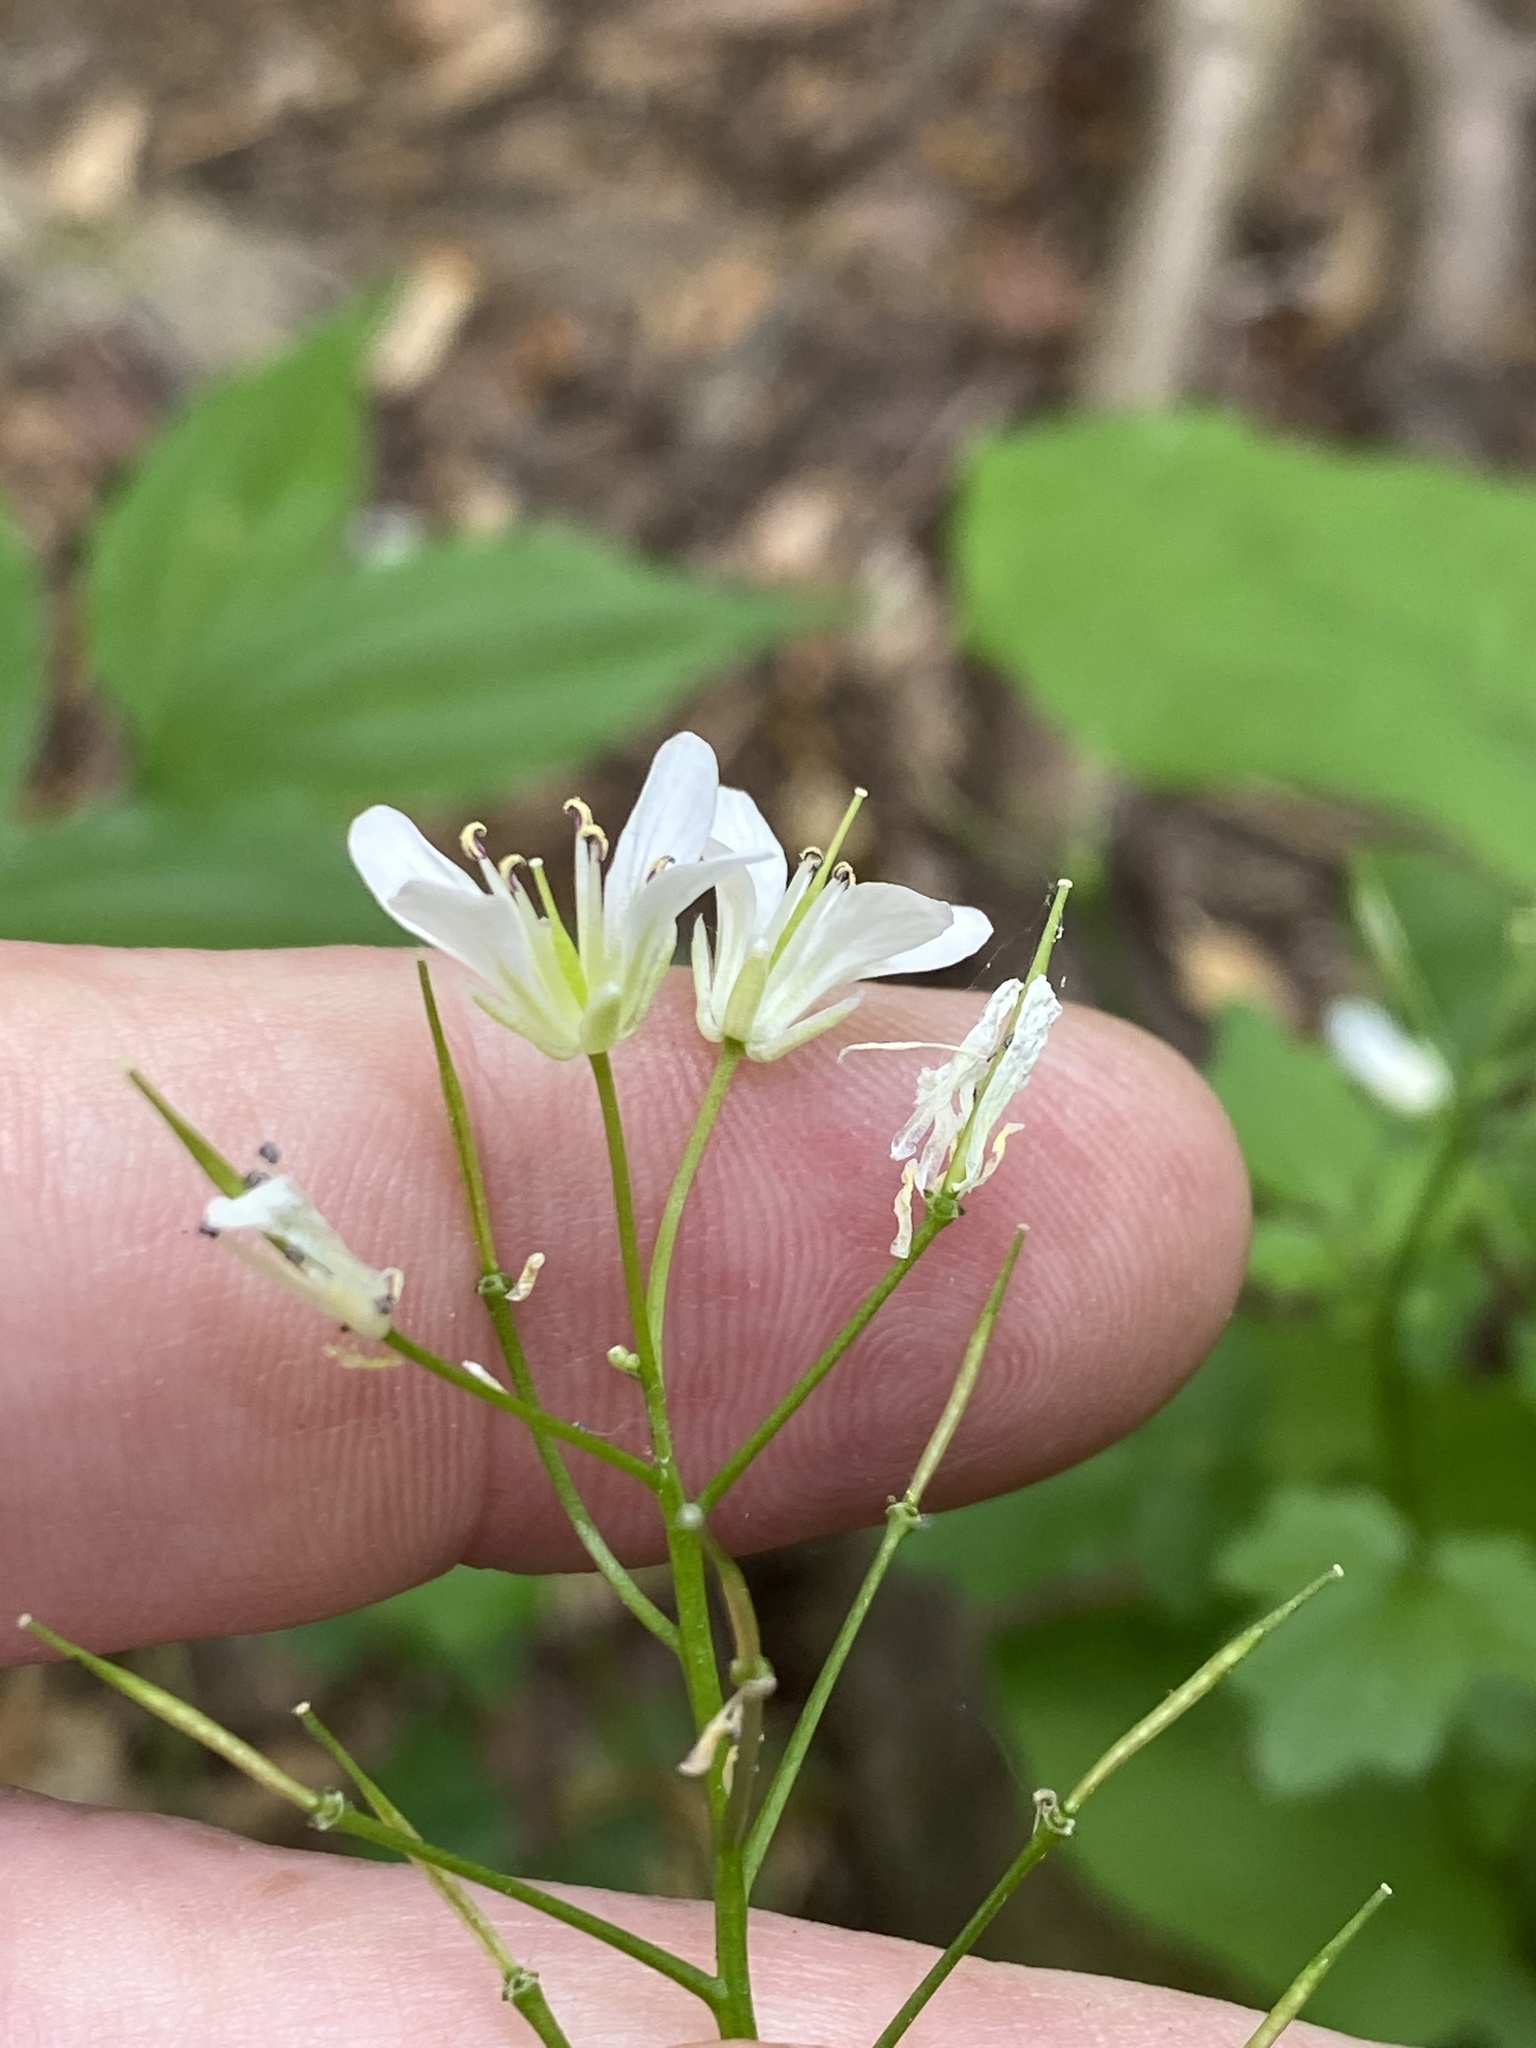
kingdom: Plantae
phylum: Tracheophyta
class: Magnoliopsida
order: Brassicales
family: Brassicaceae
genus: Cardamine
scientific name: Cardamine flagellifera
